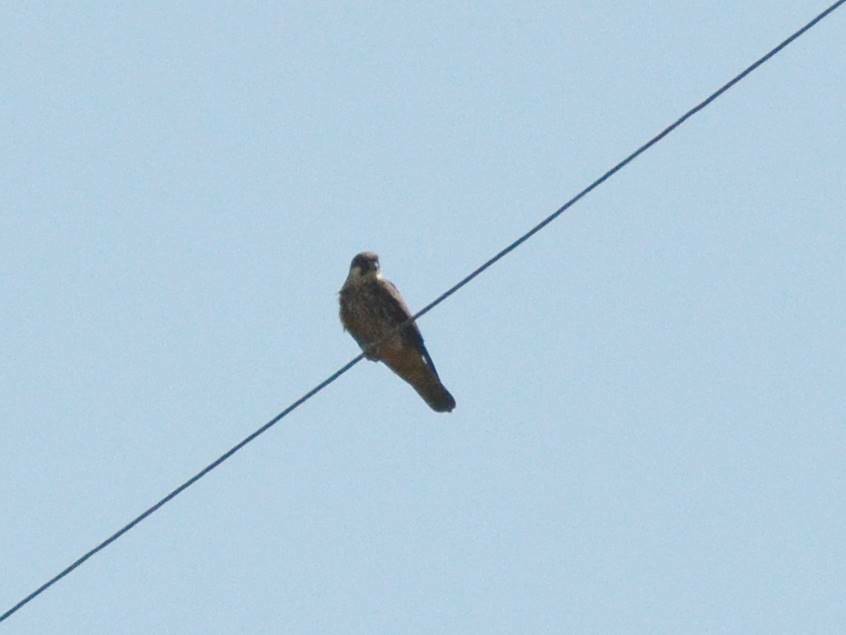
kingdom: Animalia
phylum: Chordata
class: Aves
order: Falconiformes
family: Falconidae
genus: Falco
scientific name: Falco subbuteo
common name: Eurasian hobby
